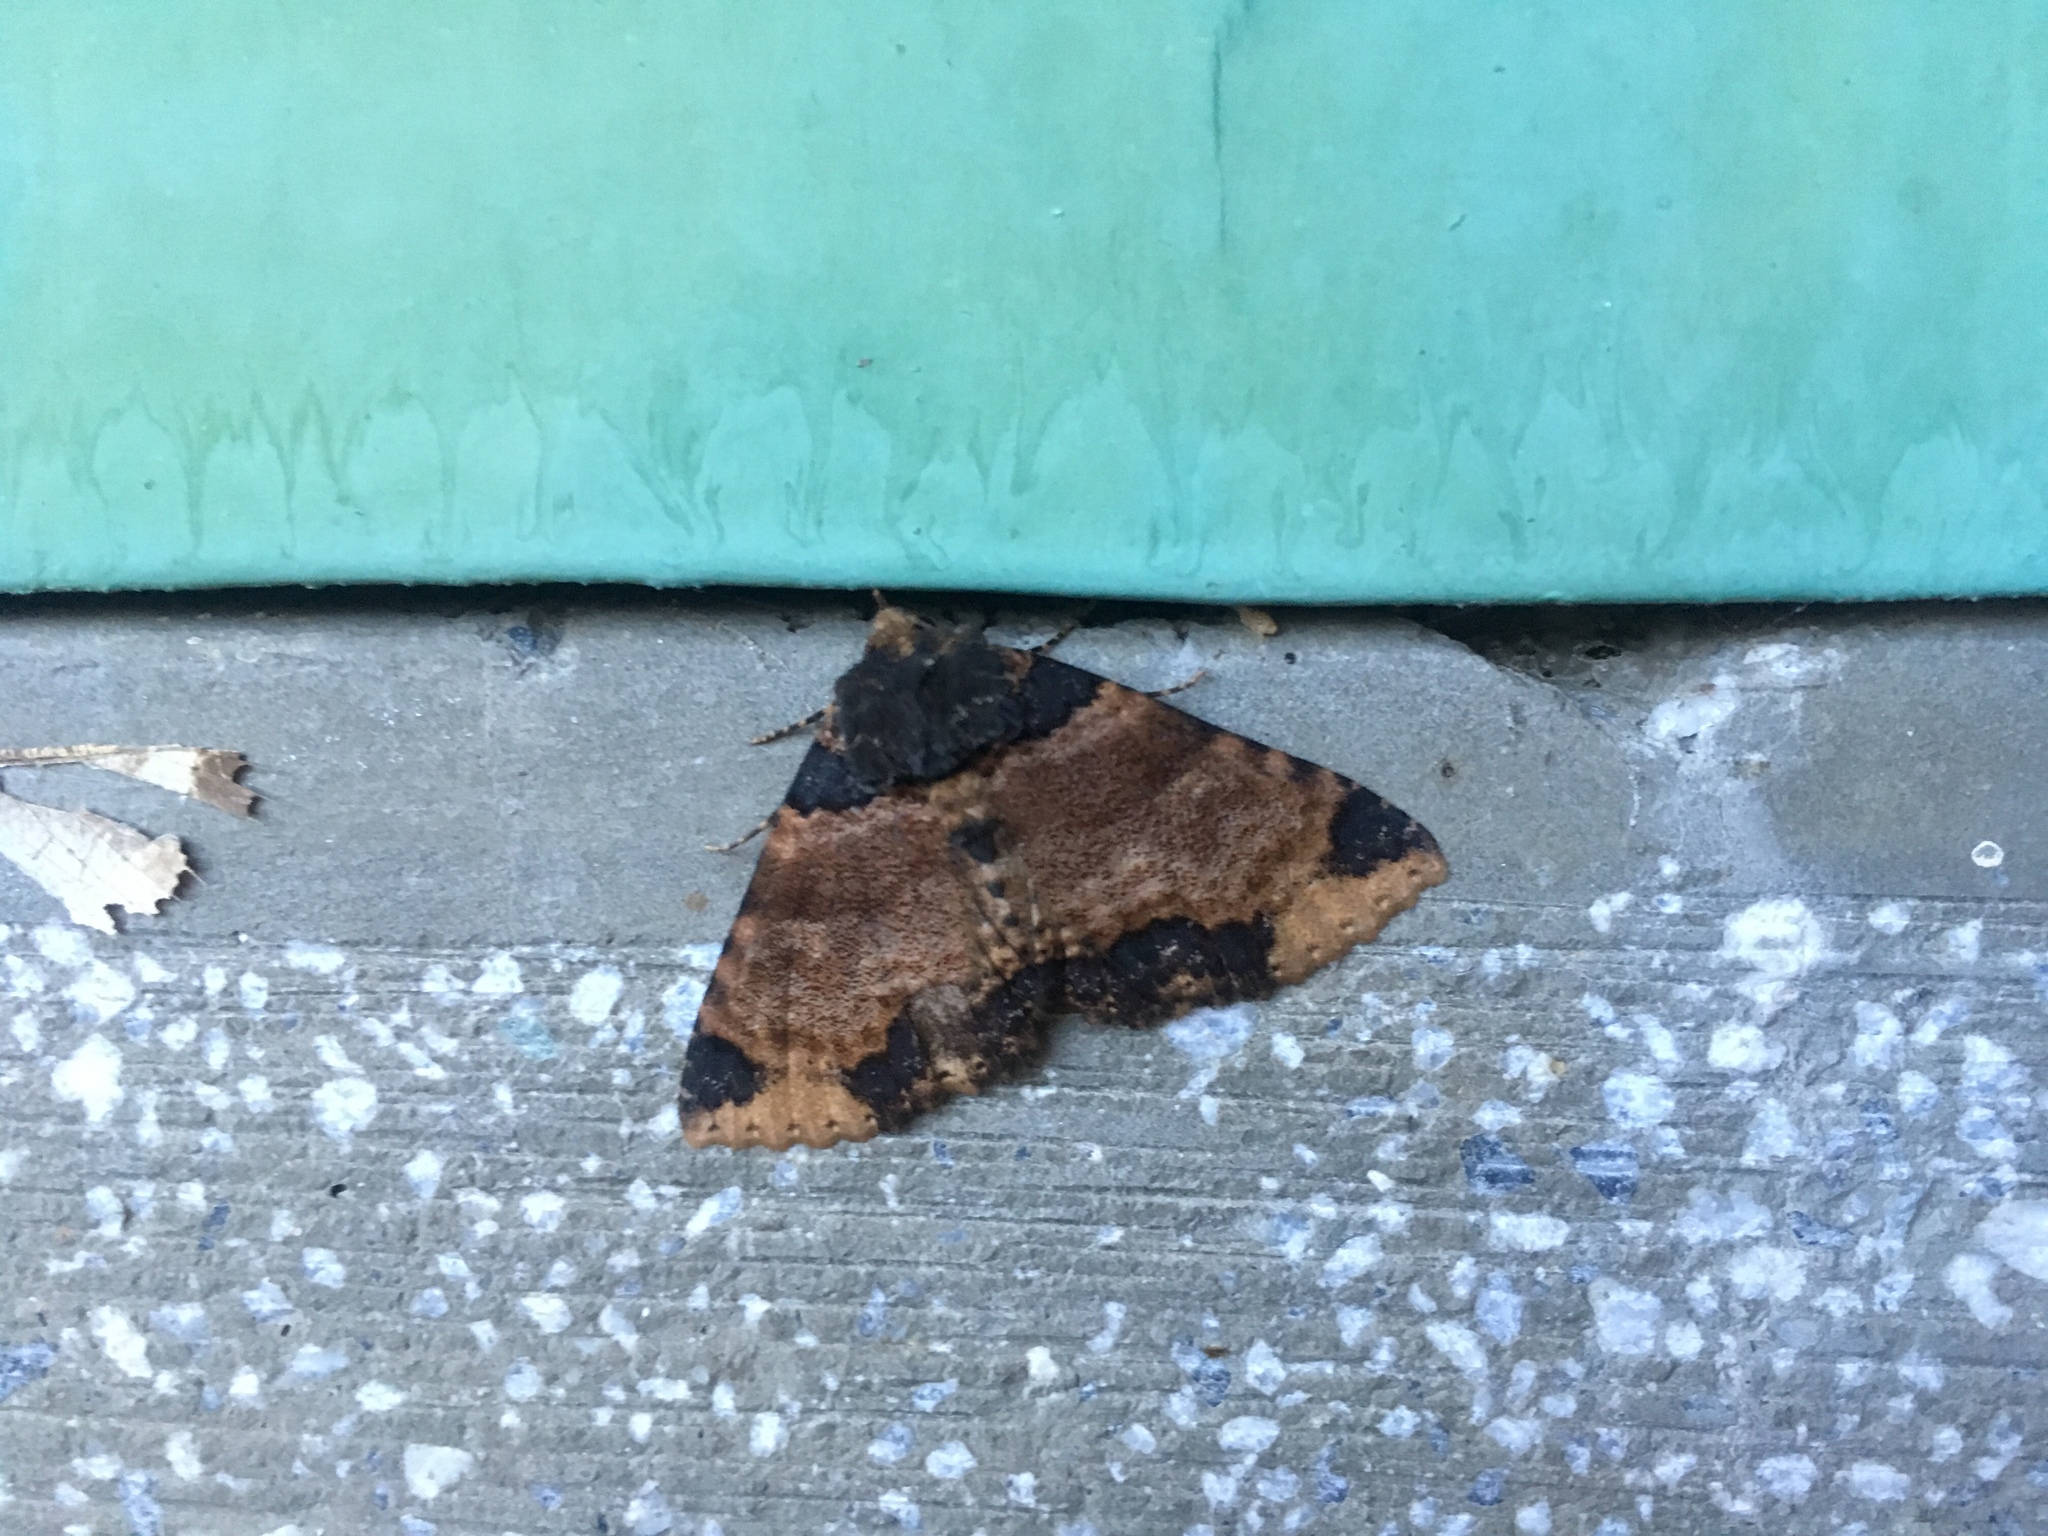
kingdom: Animalia
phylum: Arthropoda
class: Insecta
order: Lepidoptera
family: Erebidae
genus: Sypnoides
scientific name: Sypnoides pannosa
